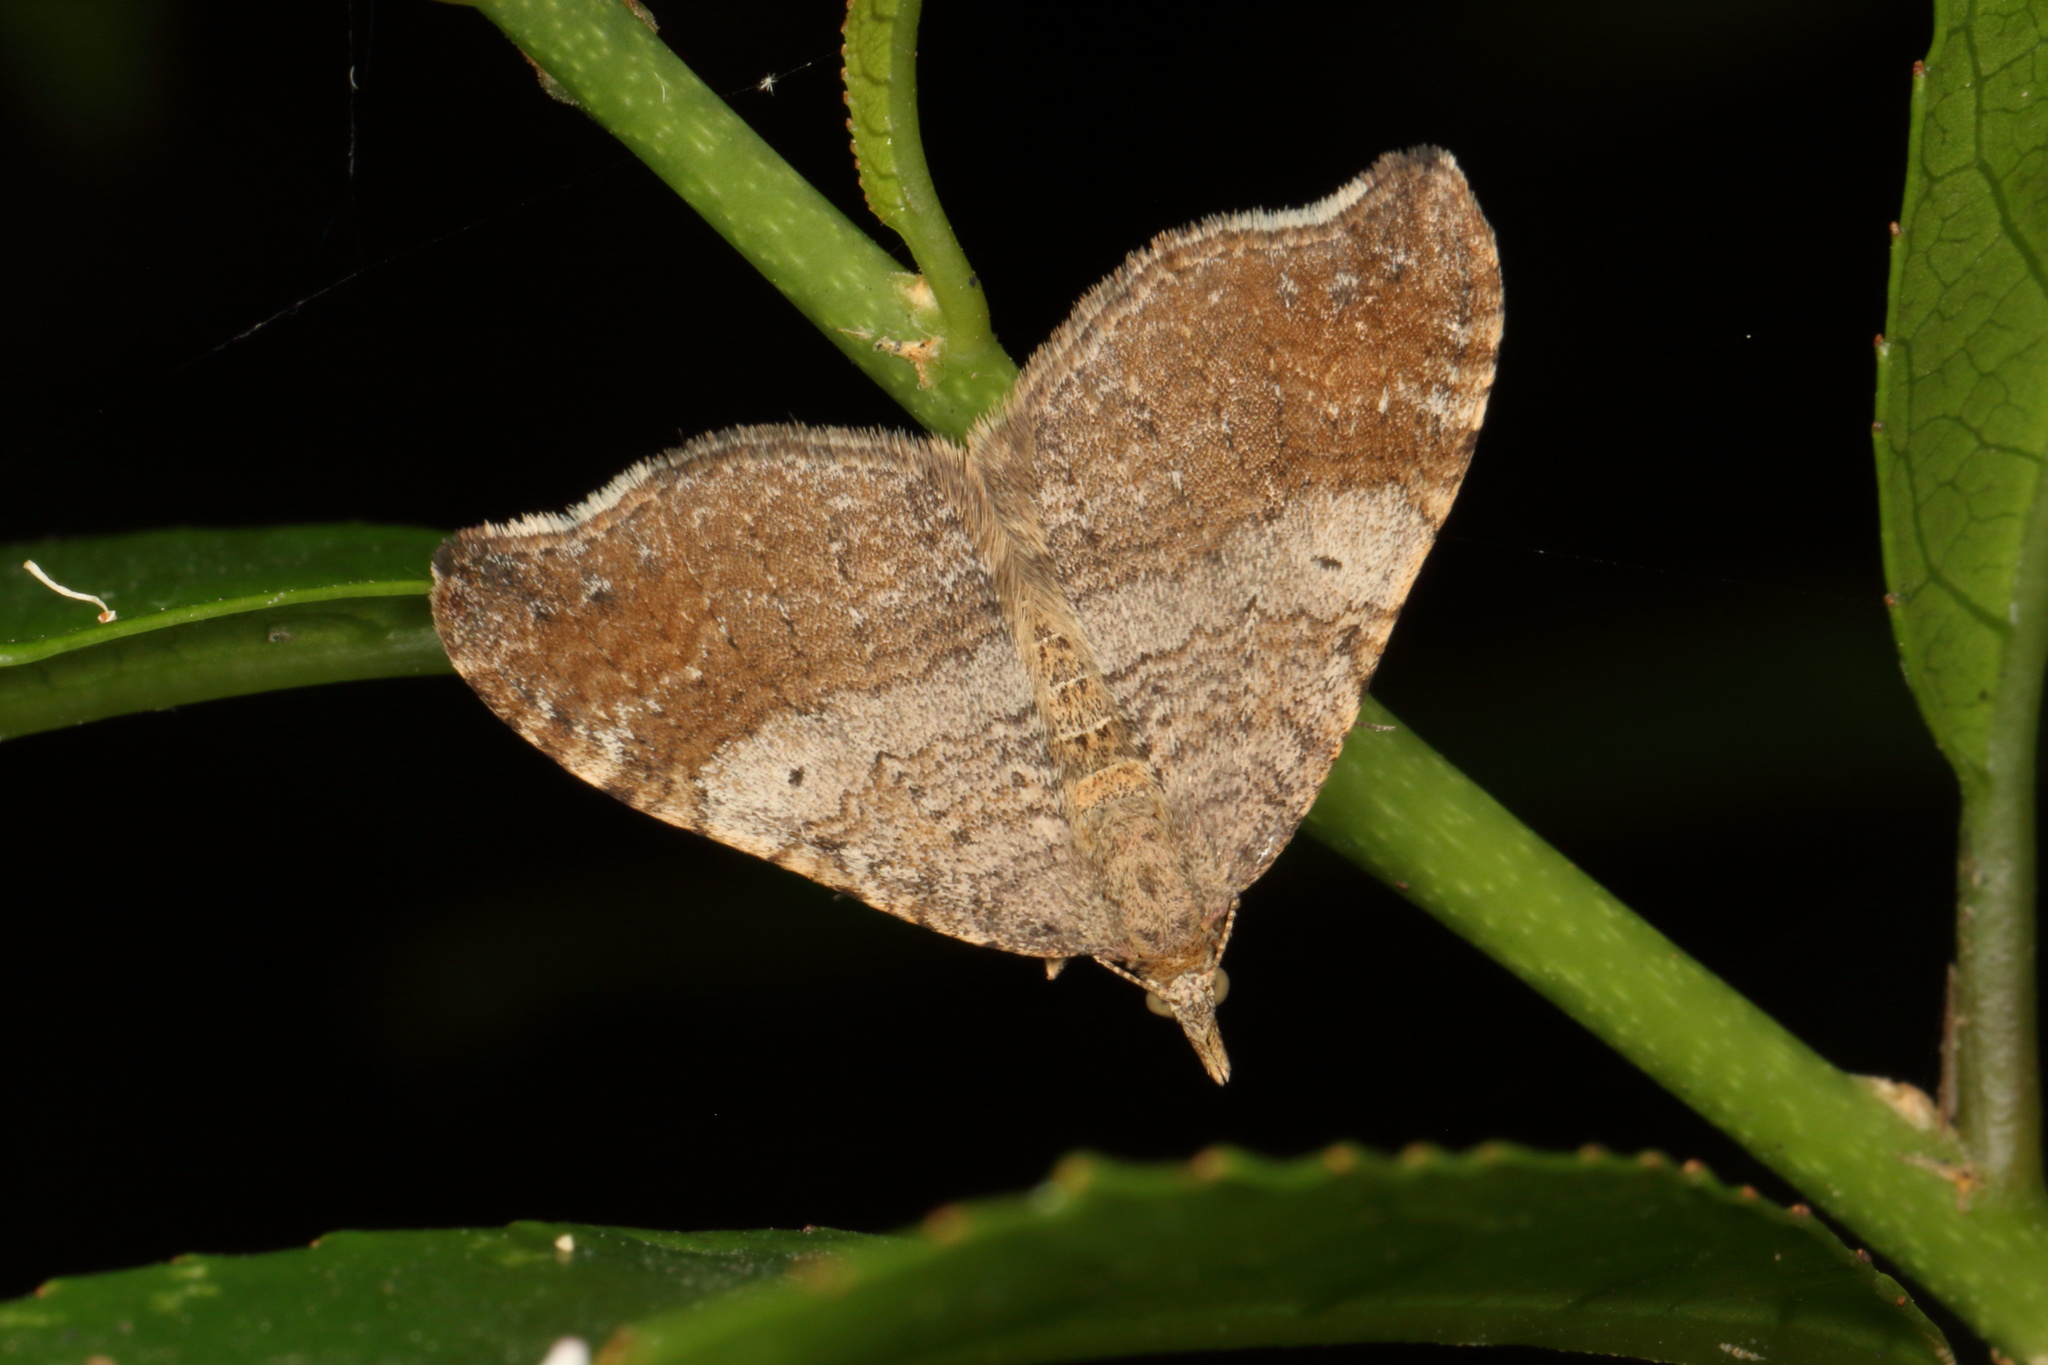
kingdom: Animalia
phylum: Arthropoda
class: Insecta
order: Lepidoptera
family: Geometridae
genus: Homodotis
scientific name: Homodotis megaspilata
